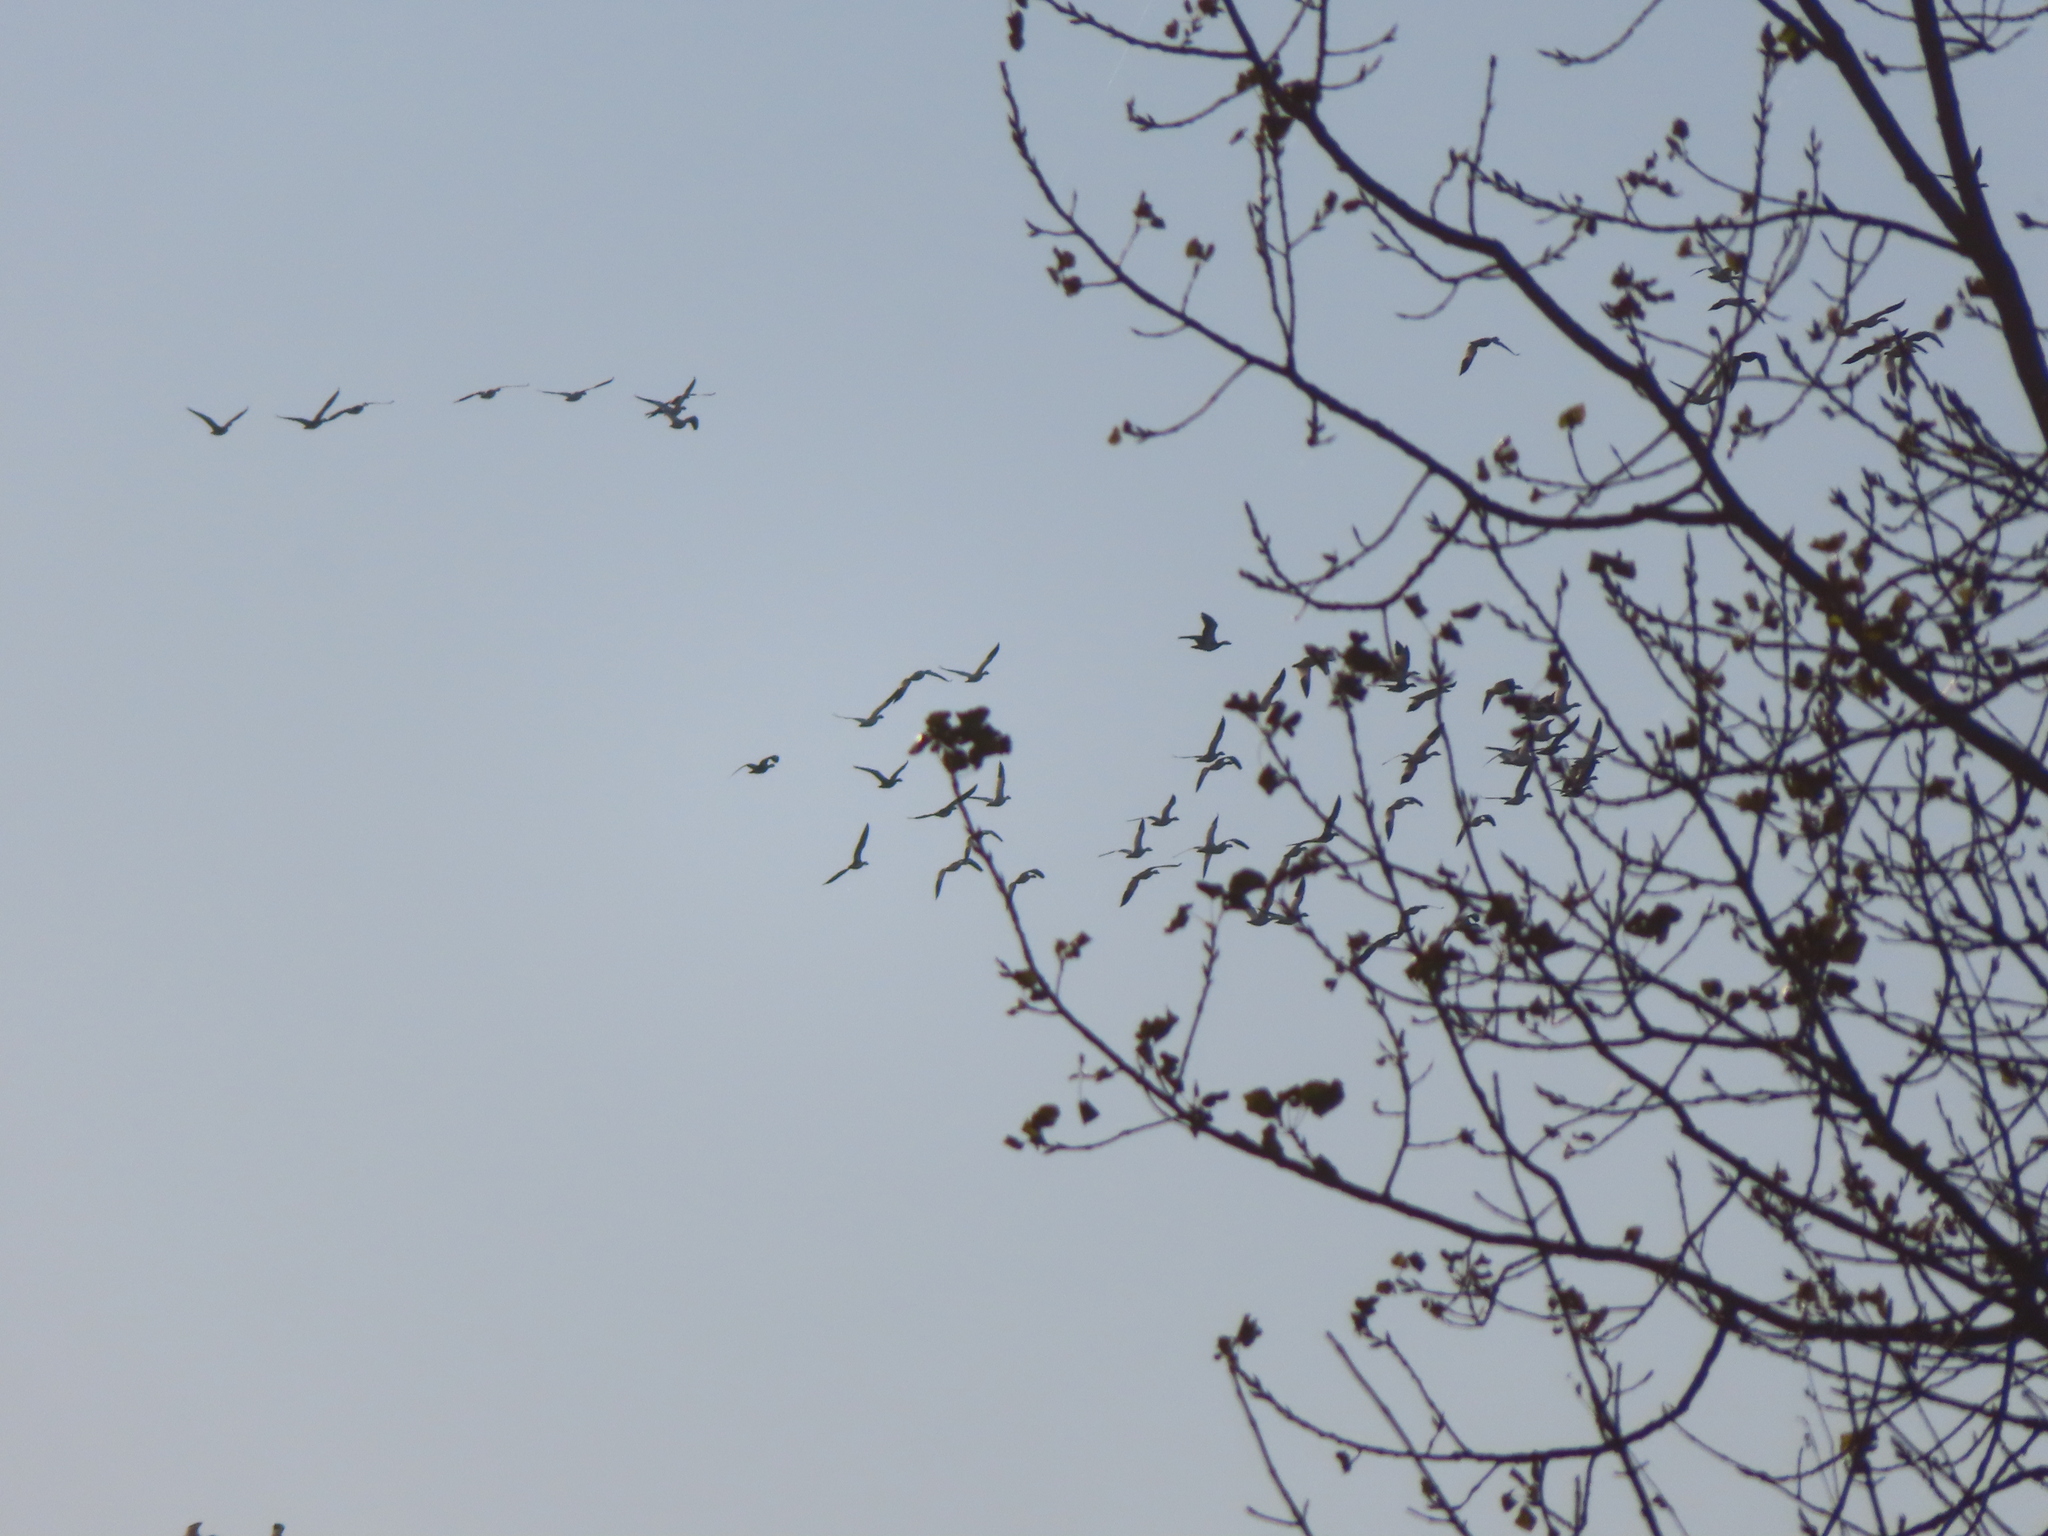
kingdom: Animalia
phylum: Chordata
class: Aves
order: Anseriformes
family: Anatidae
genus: Anser
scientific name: Anser caerulescens
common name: Snow goose
